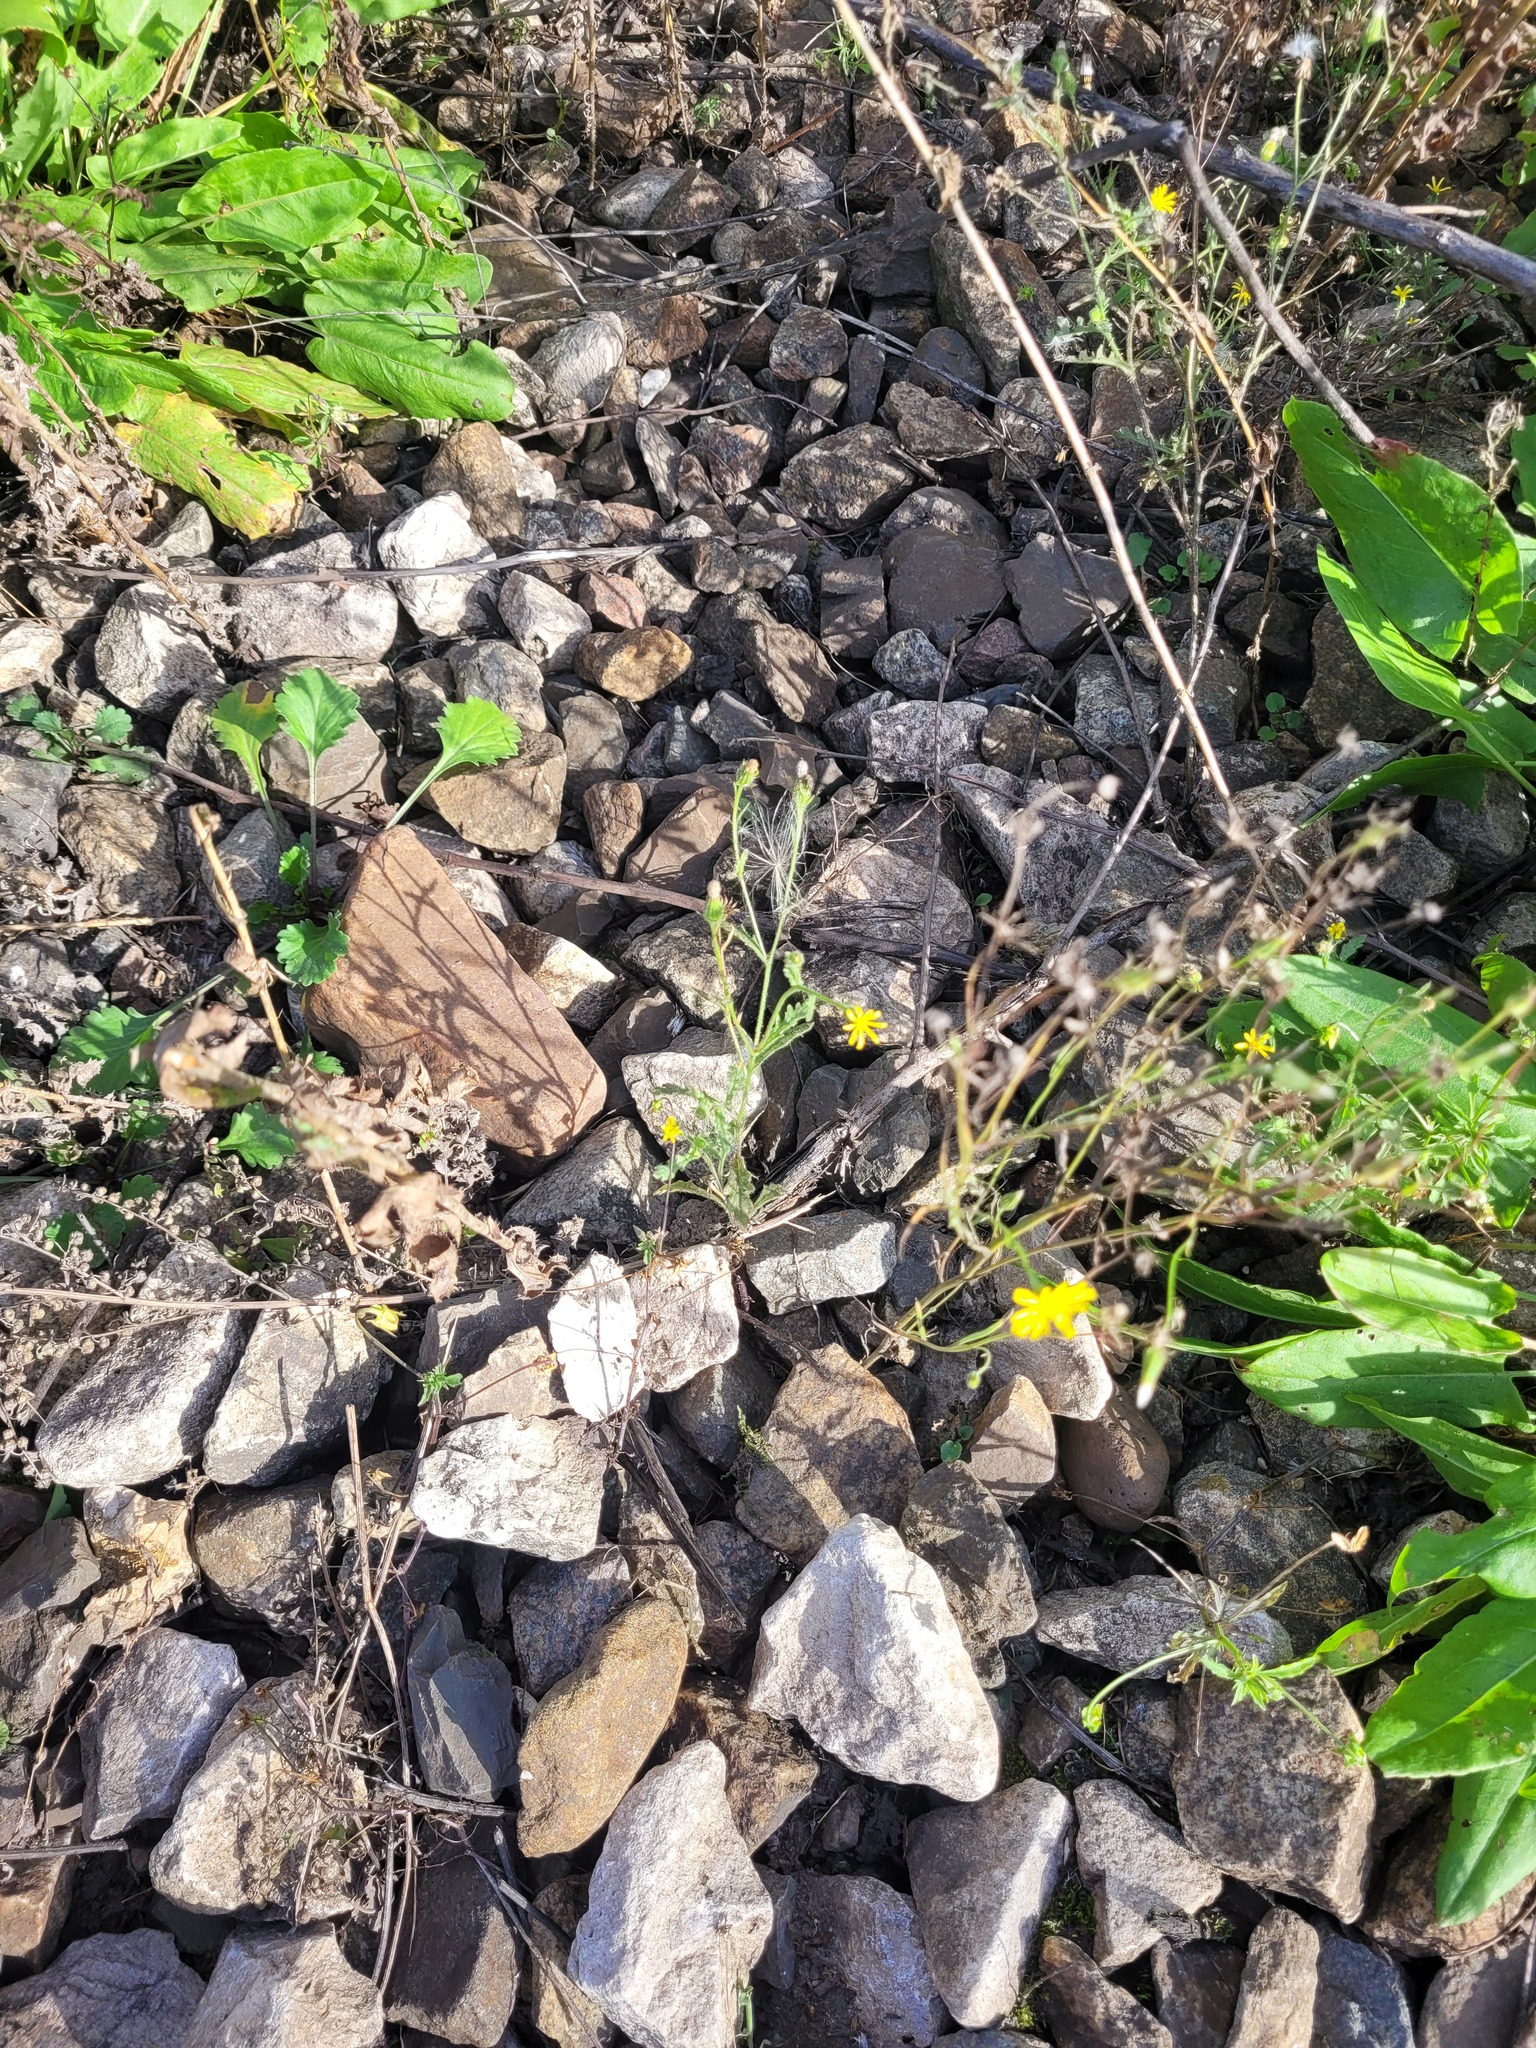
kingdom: Plantae
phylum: Tracheophyta
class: Magnoliopsida
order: Asterales
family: Asteraceae
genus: Senecio
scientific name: Senecio viscosus
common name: Sticky groundsel
